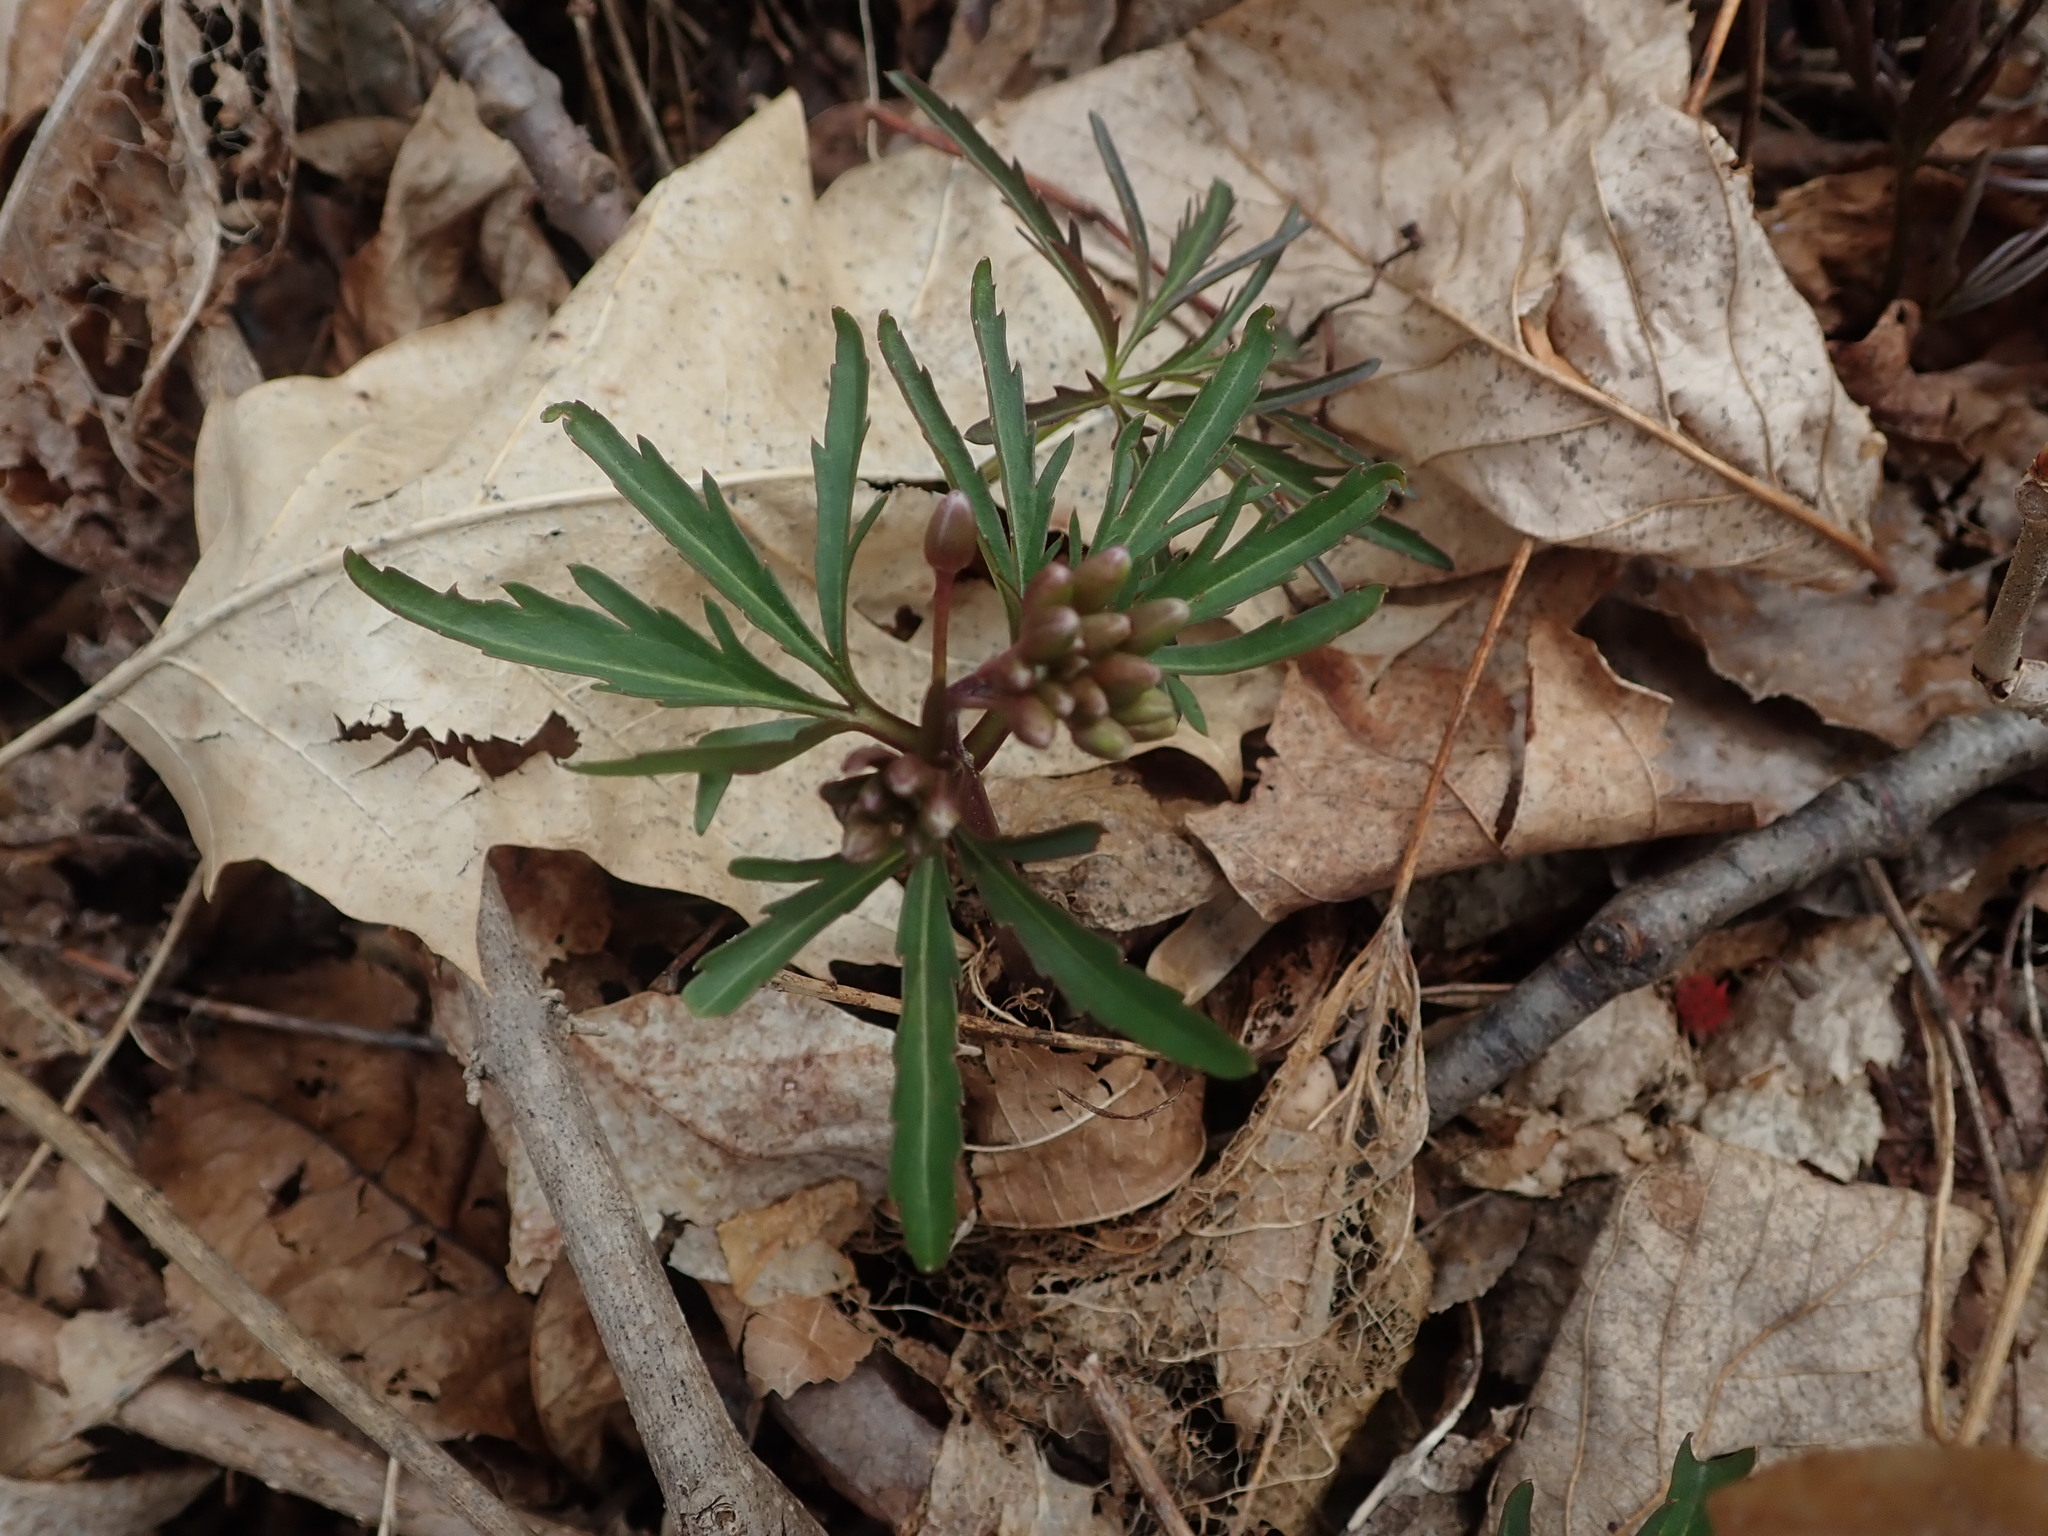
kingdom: Plantae
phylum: Tracheophyta
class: Magnoliopsida
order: Brassicales
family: Brassicaceae
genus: Cardamine
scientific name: Cardamine concatenata
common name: Cut-leaf toothcup
